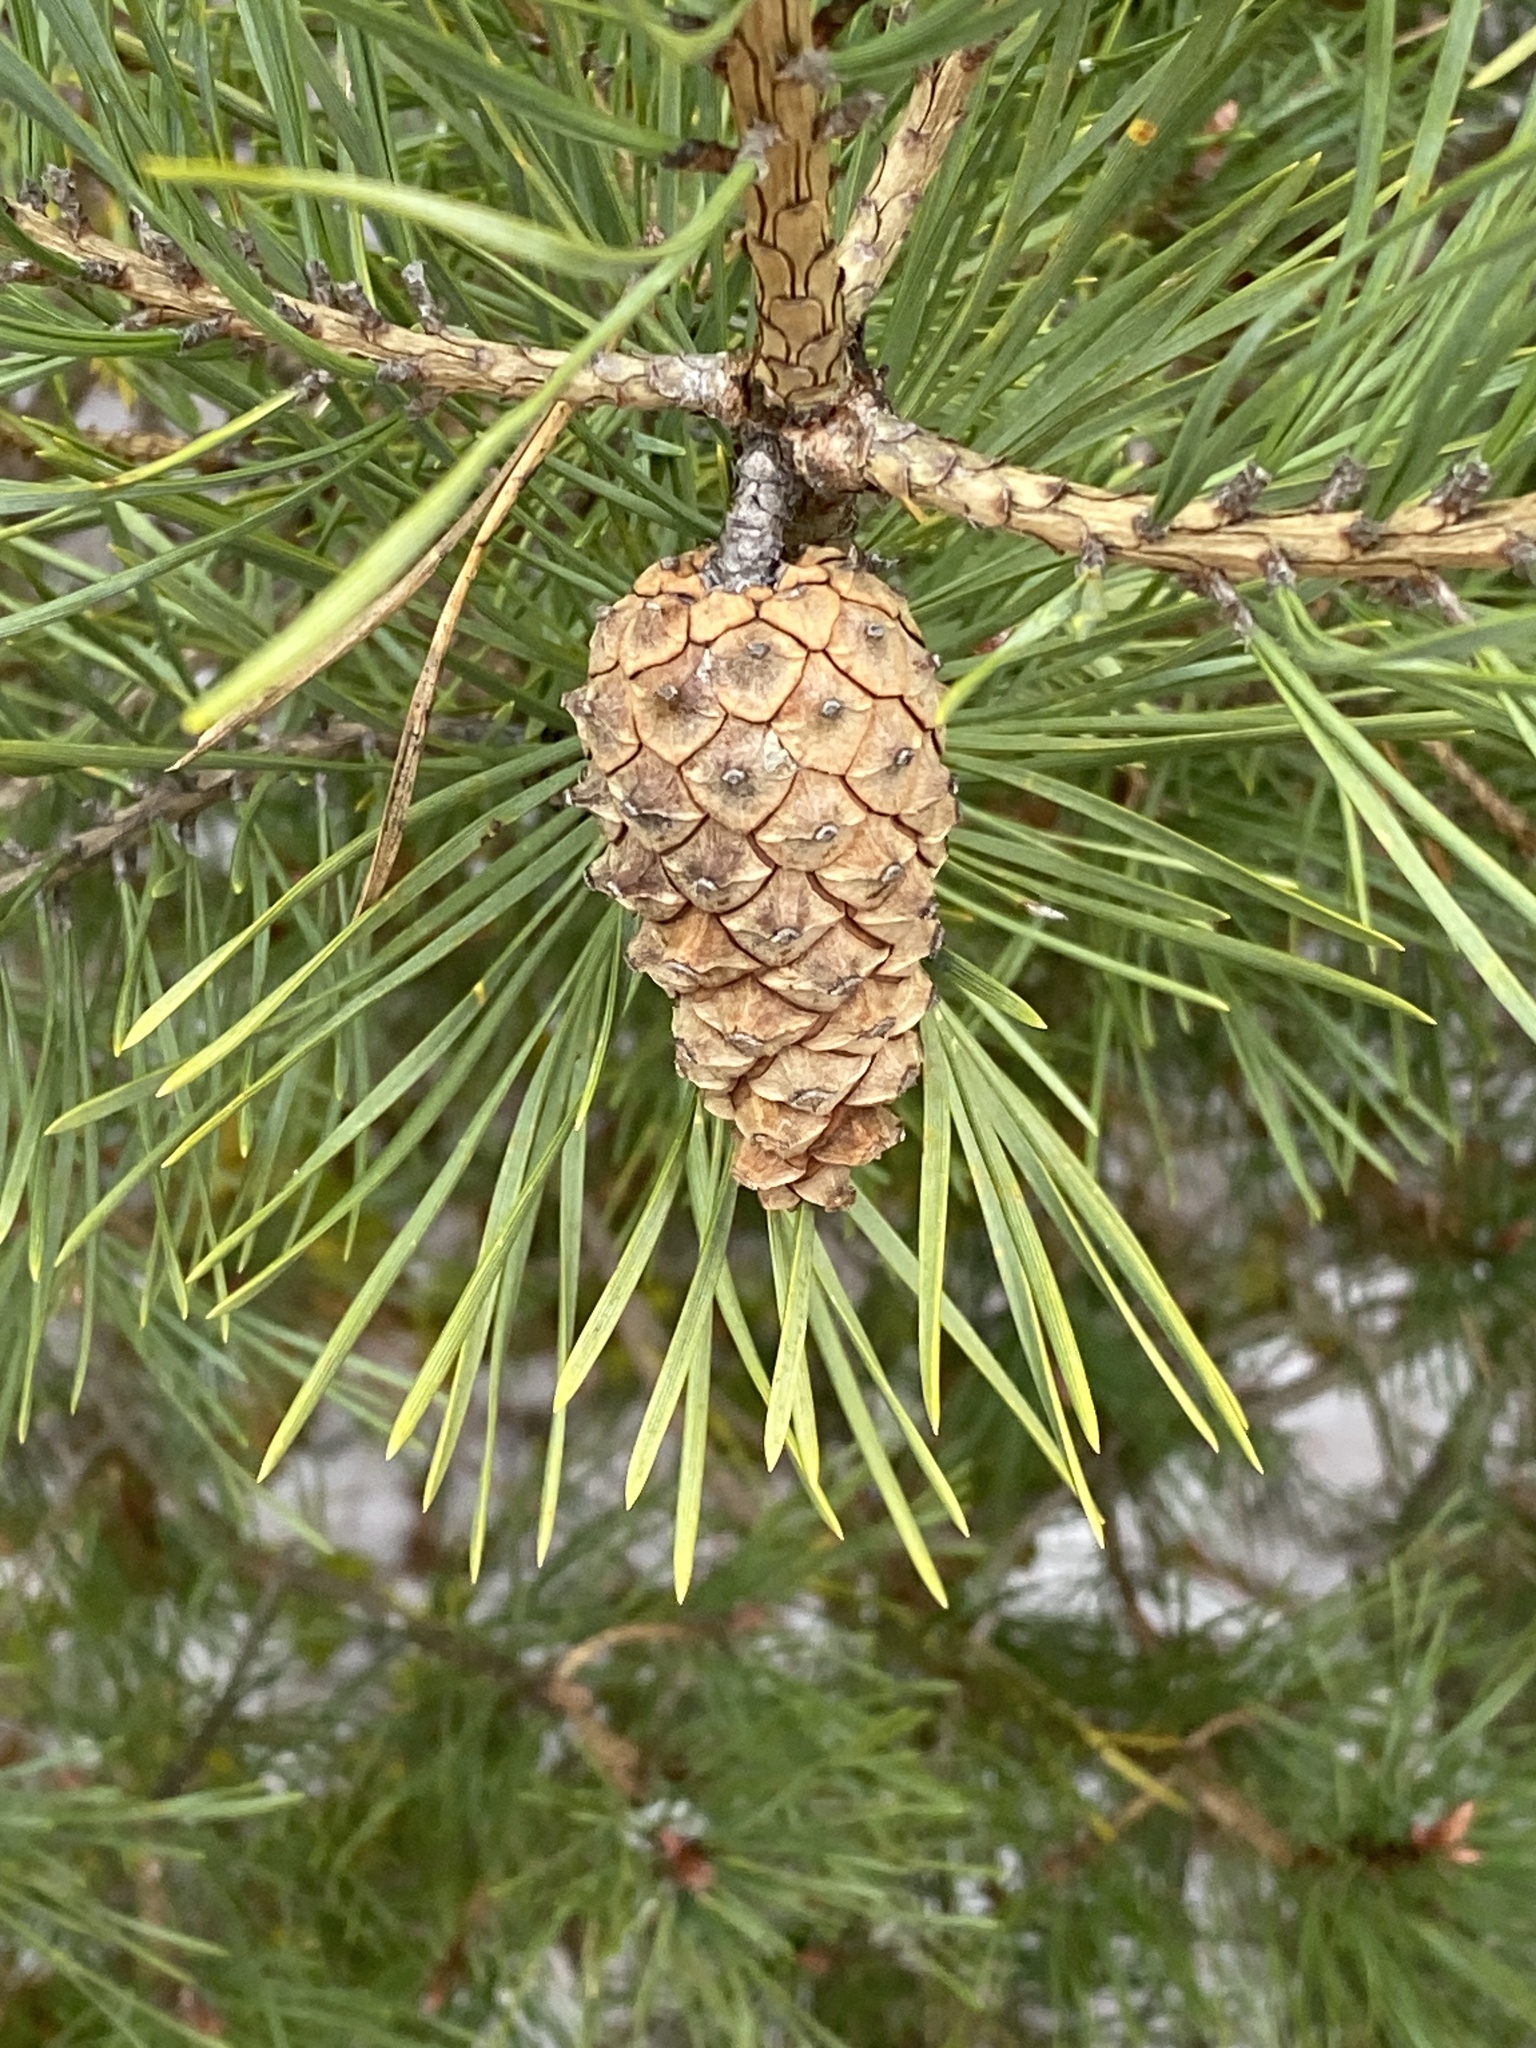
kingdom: Plantae
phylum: Tracheophyta
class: Pinopsida
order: Pinales
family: Pinaceae
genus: Pinus
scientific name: Pinus sylvestris
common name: Scots pine
